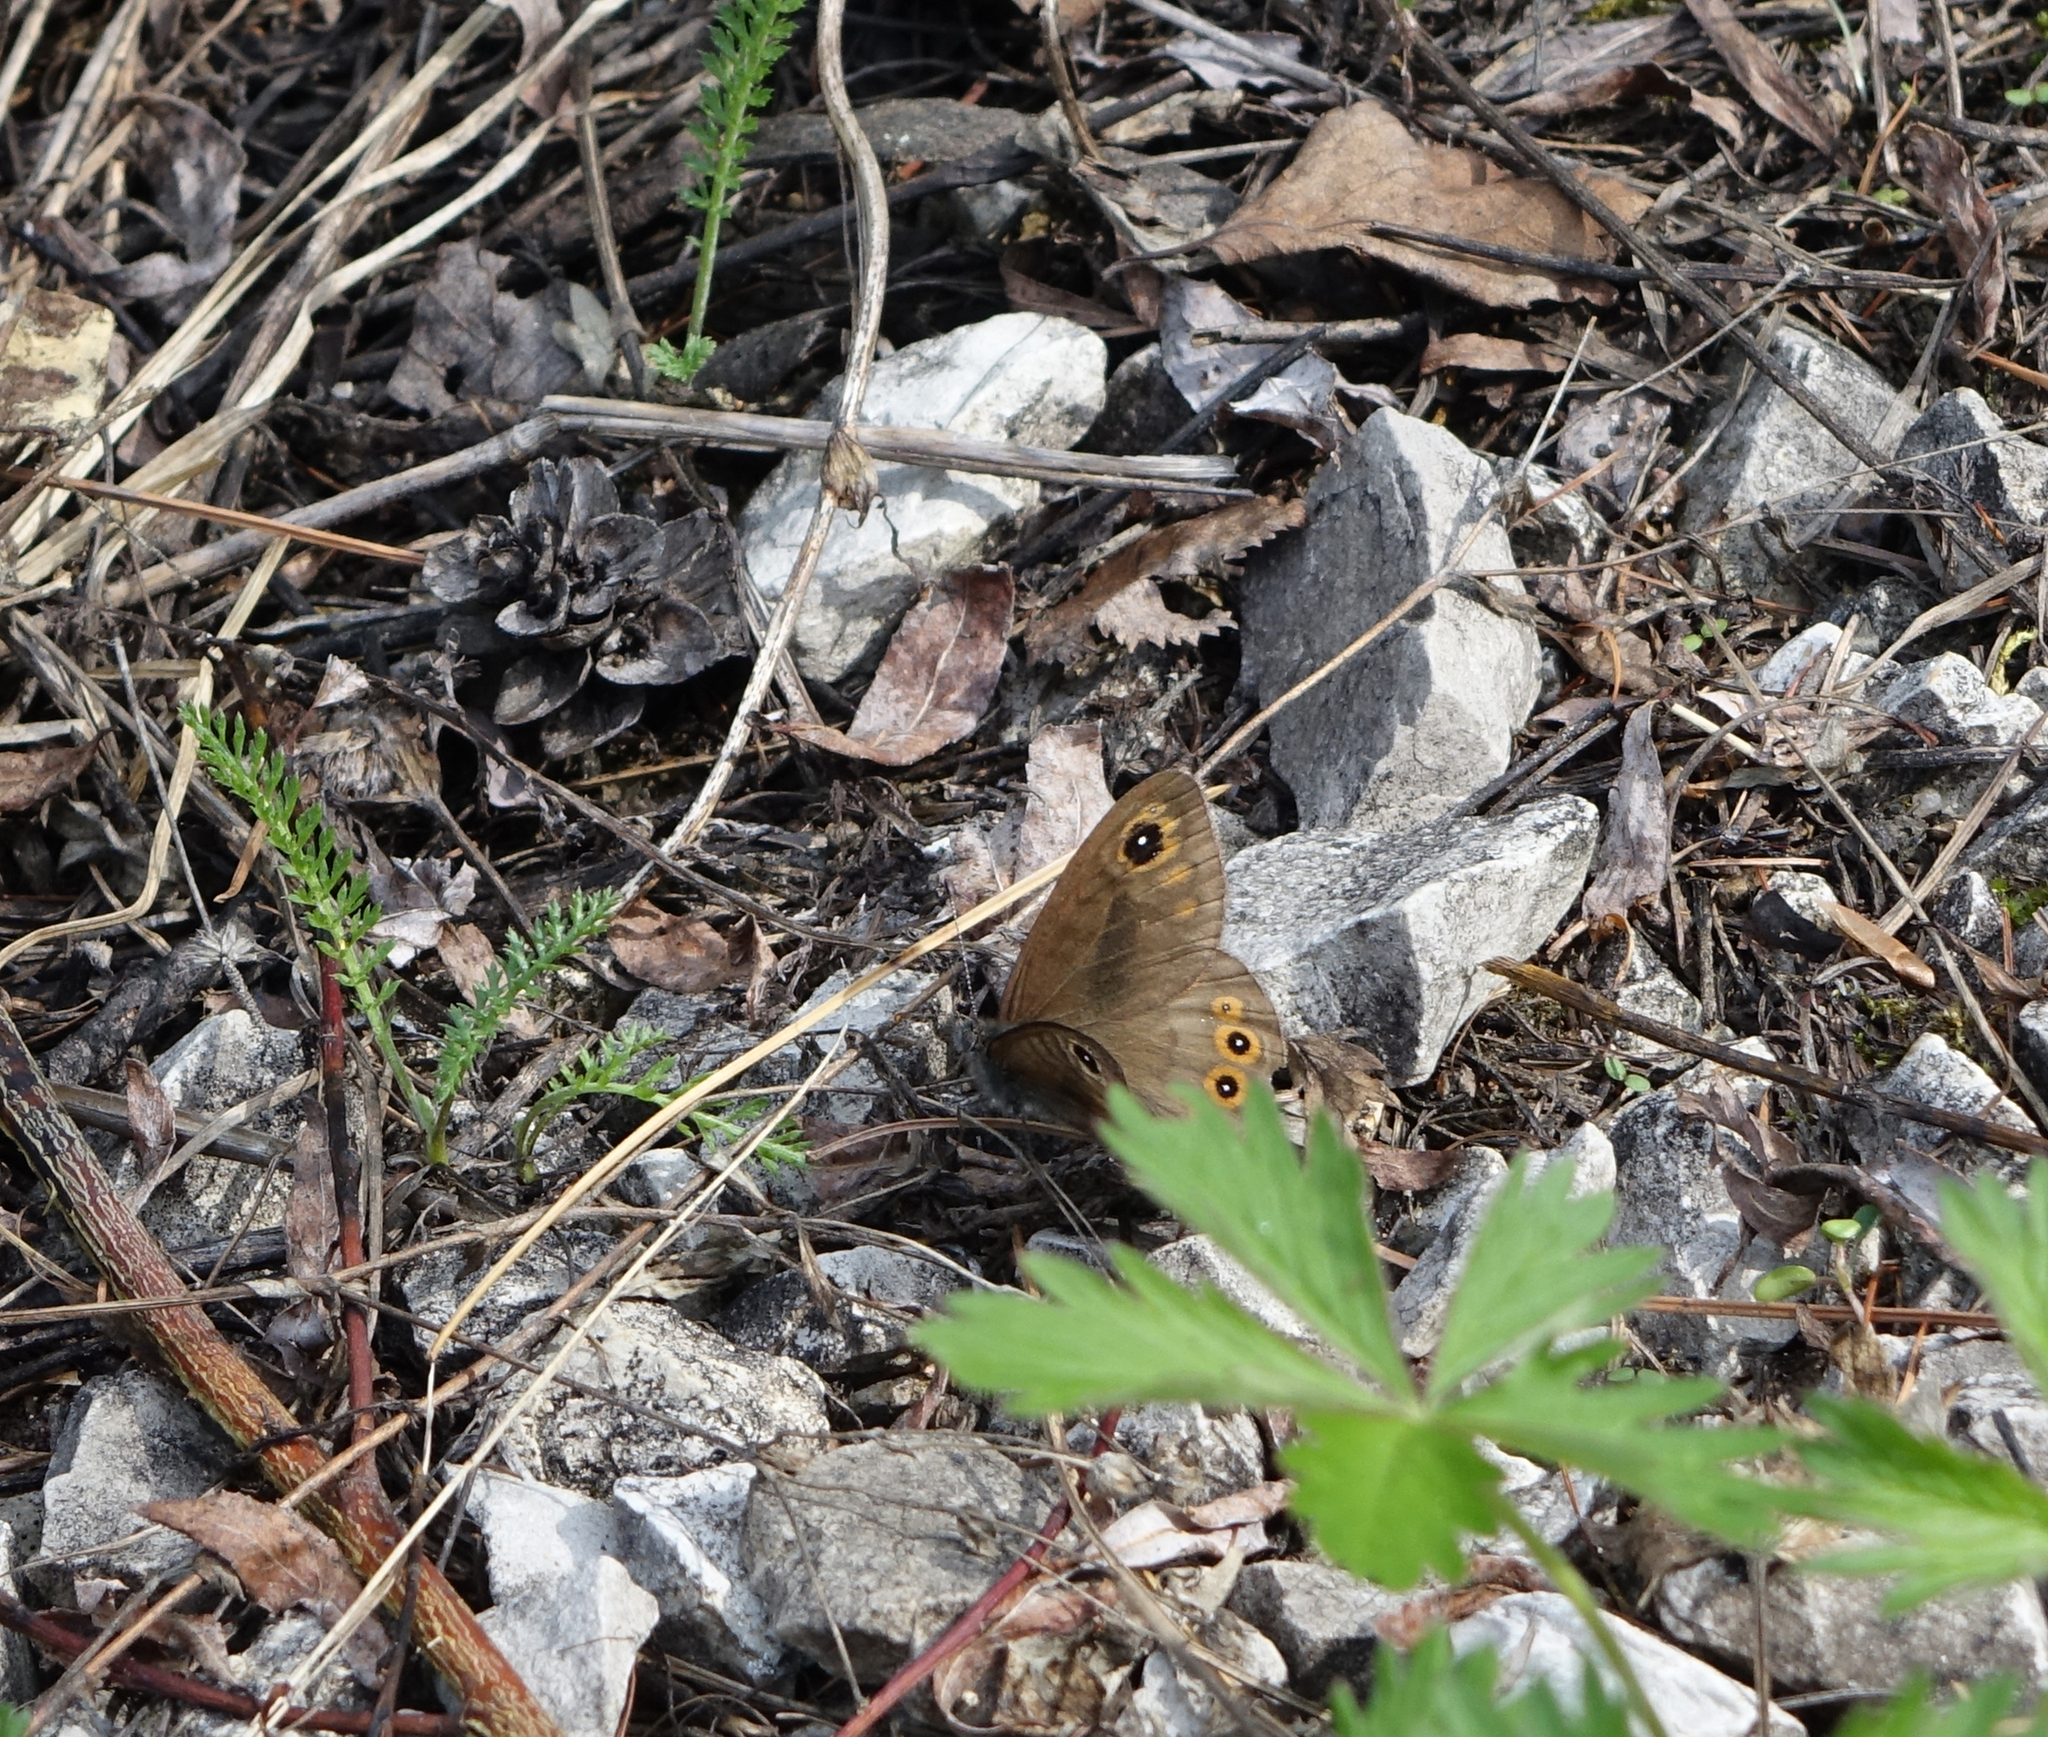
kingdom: Animalia
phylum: Arthropoda
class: Insecta
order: Lepidoptera
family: Nymphalidae
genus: Pararge
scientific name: Pararge petropolitana
